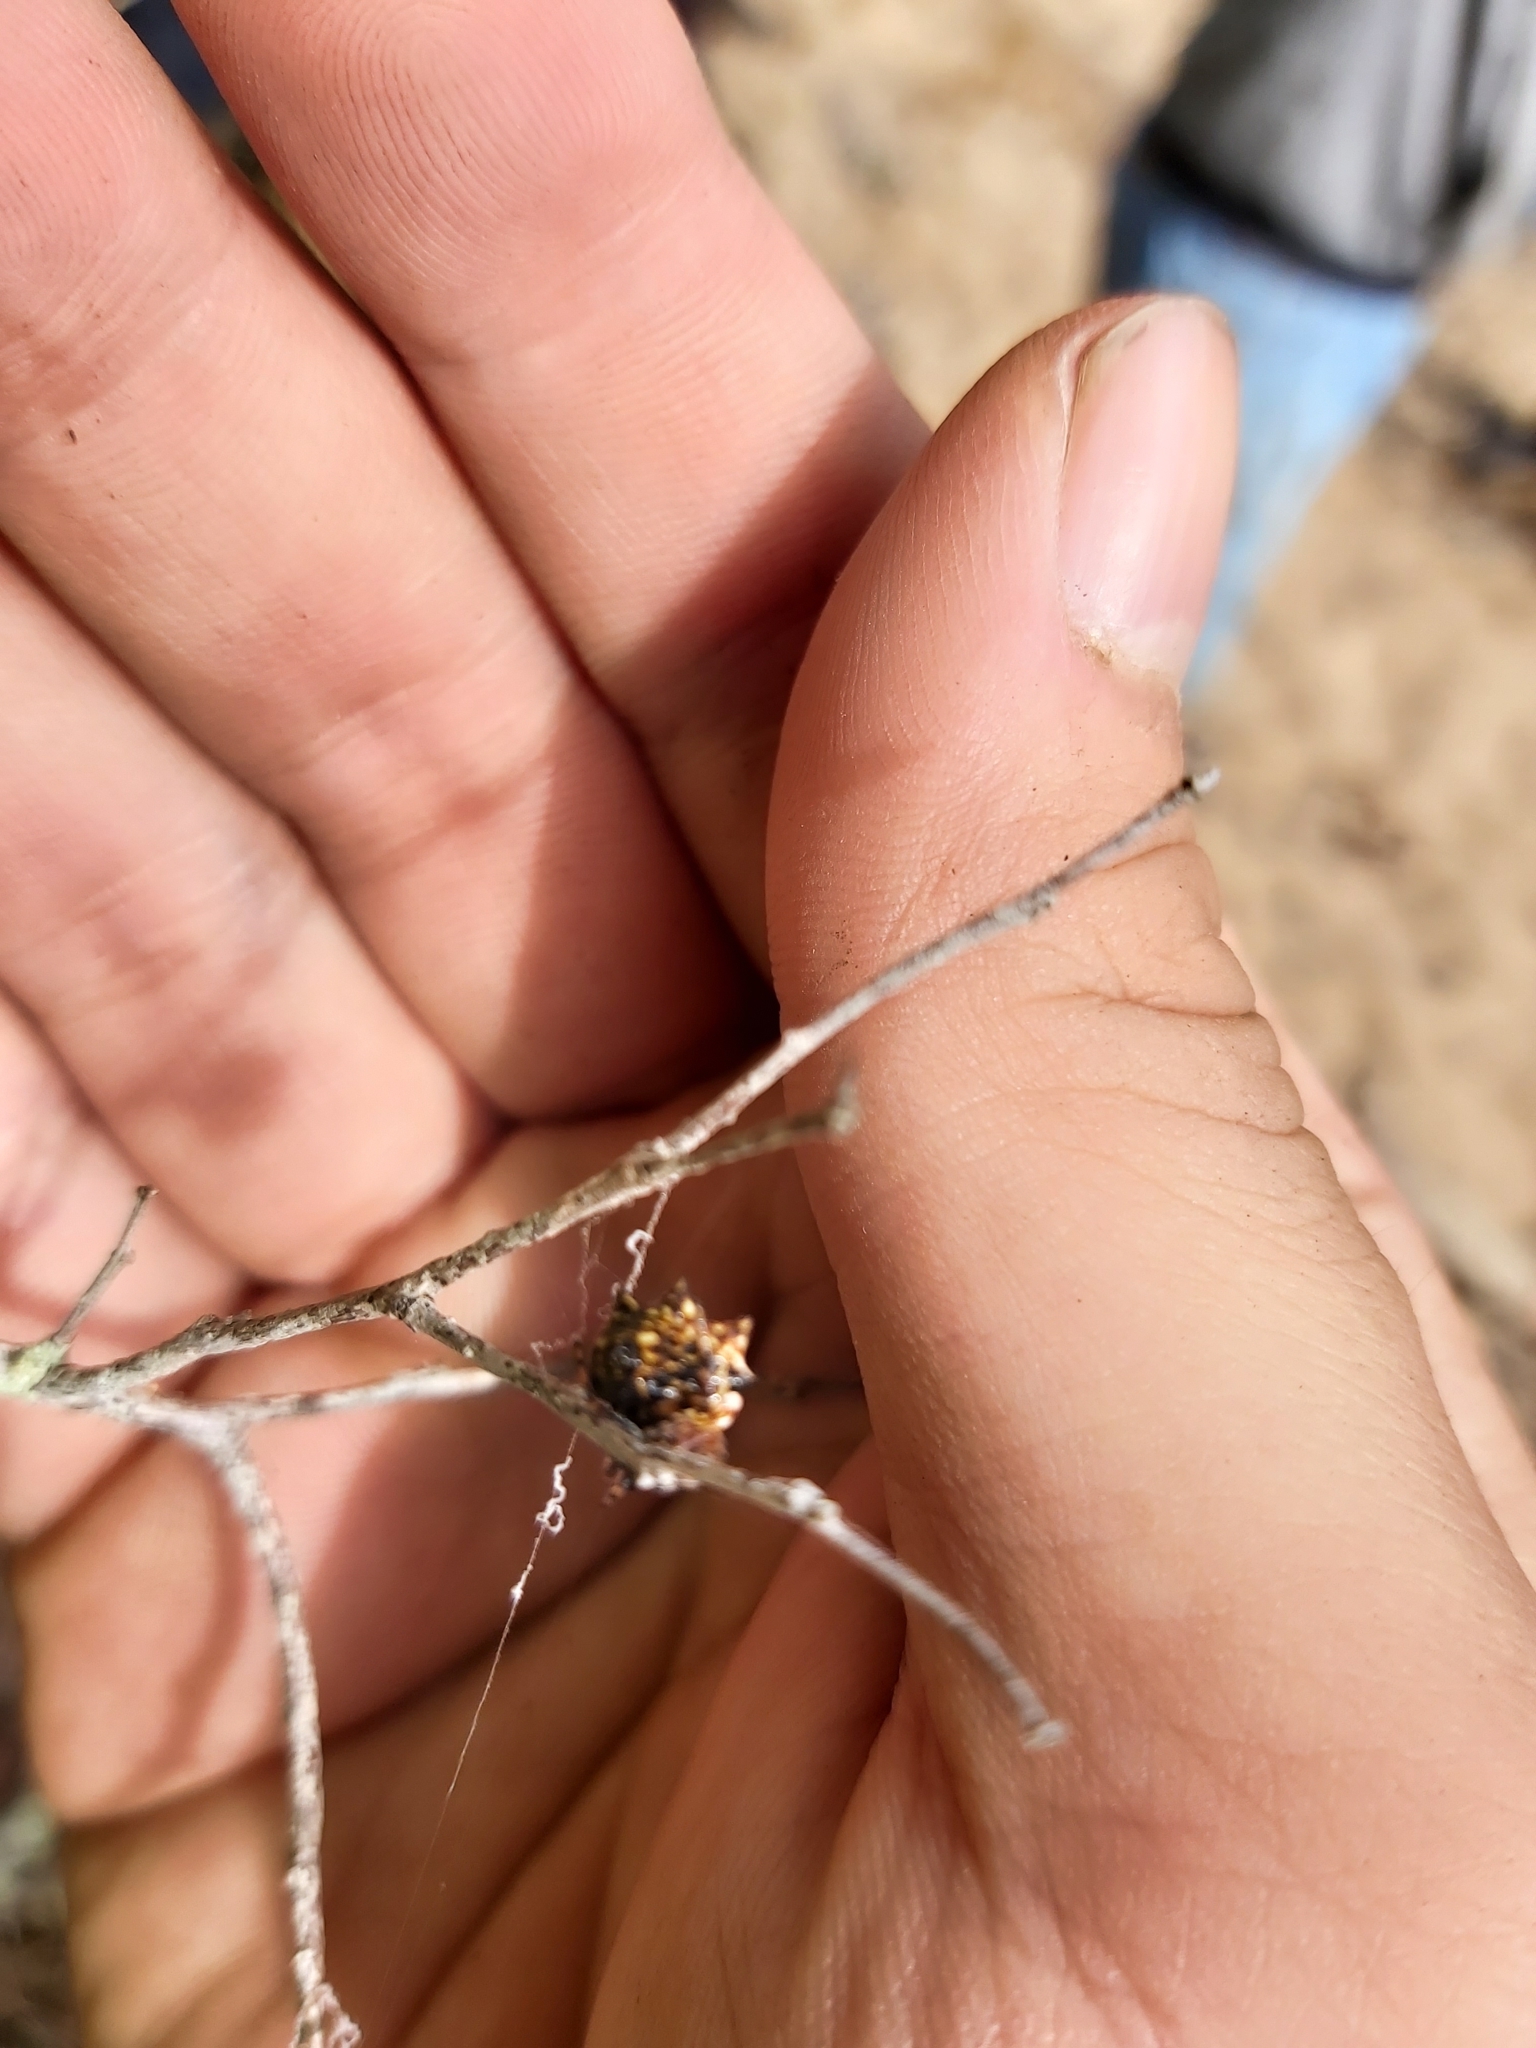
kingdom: Animalia
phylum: Arthropoda
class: Arachnida
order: Araneae
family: Araneidae
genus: Gasteracantha
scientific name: Gasteracantha sacerdotalis
